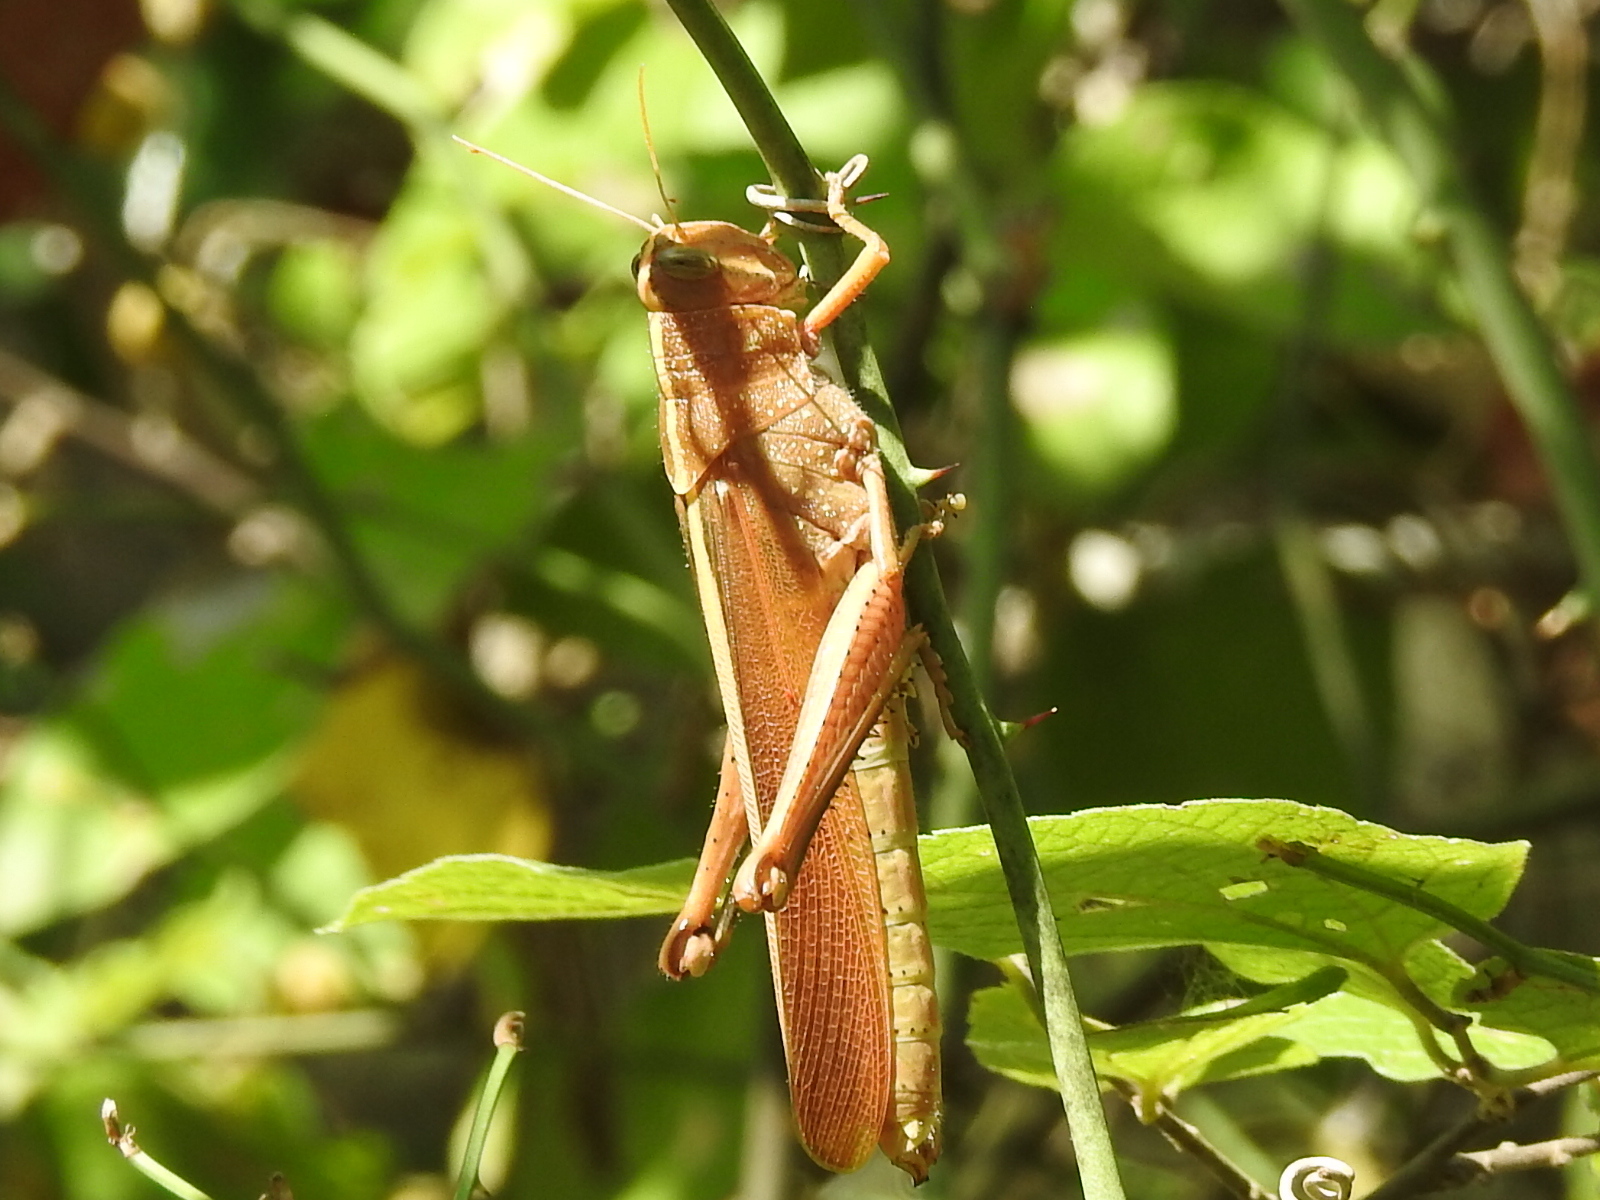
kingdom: Animalia
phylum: Arthropoda
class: Insecta
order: Orthoptera
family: Acrididae
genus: Schistocerca
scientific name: Schistocerca lineata
